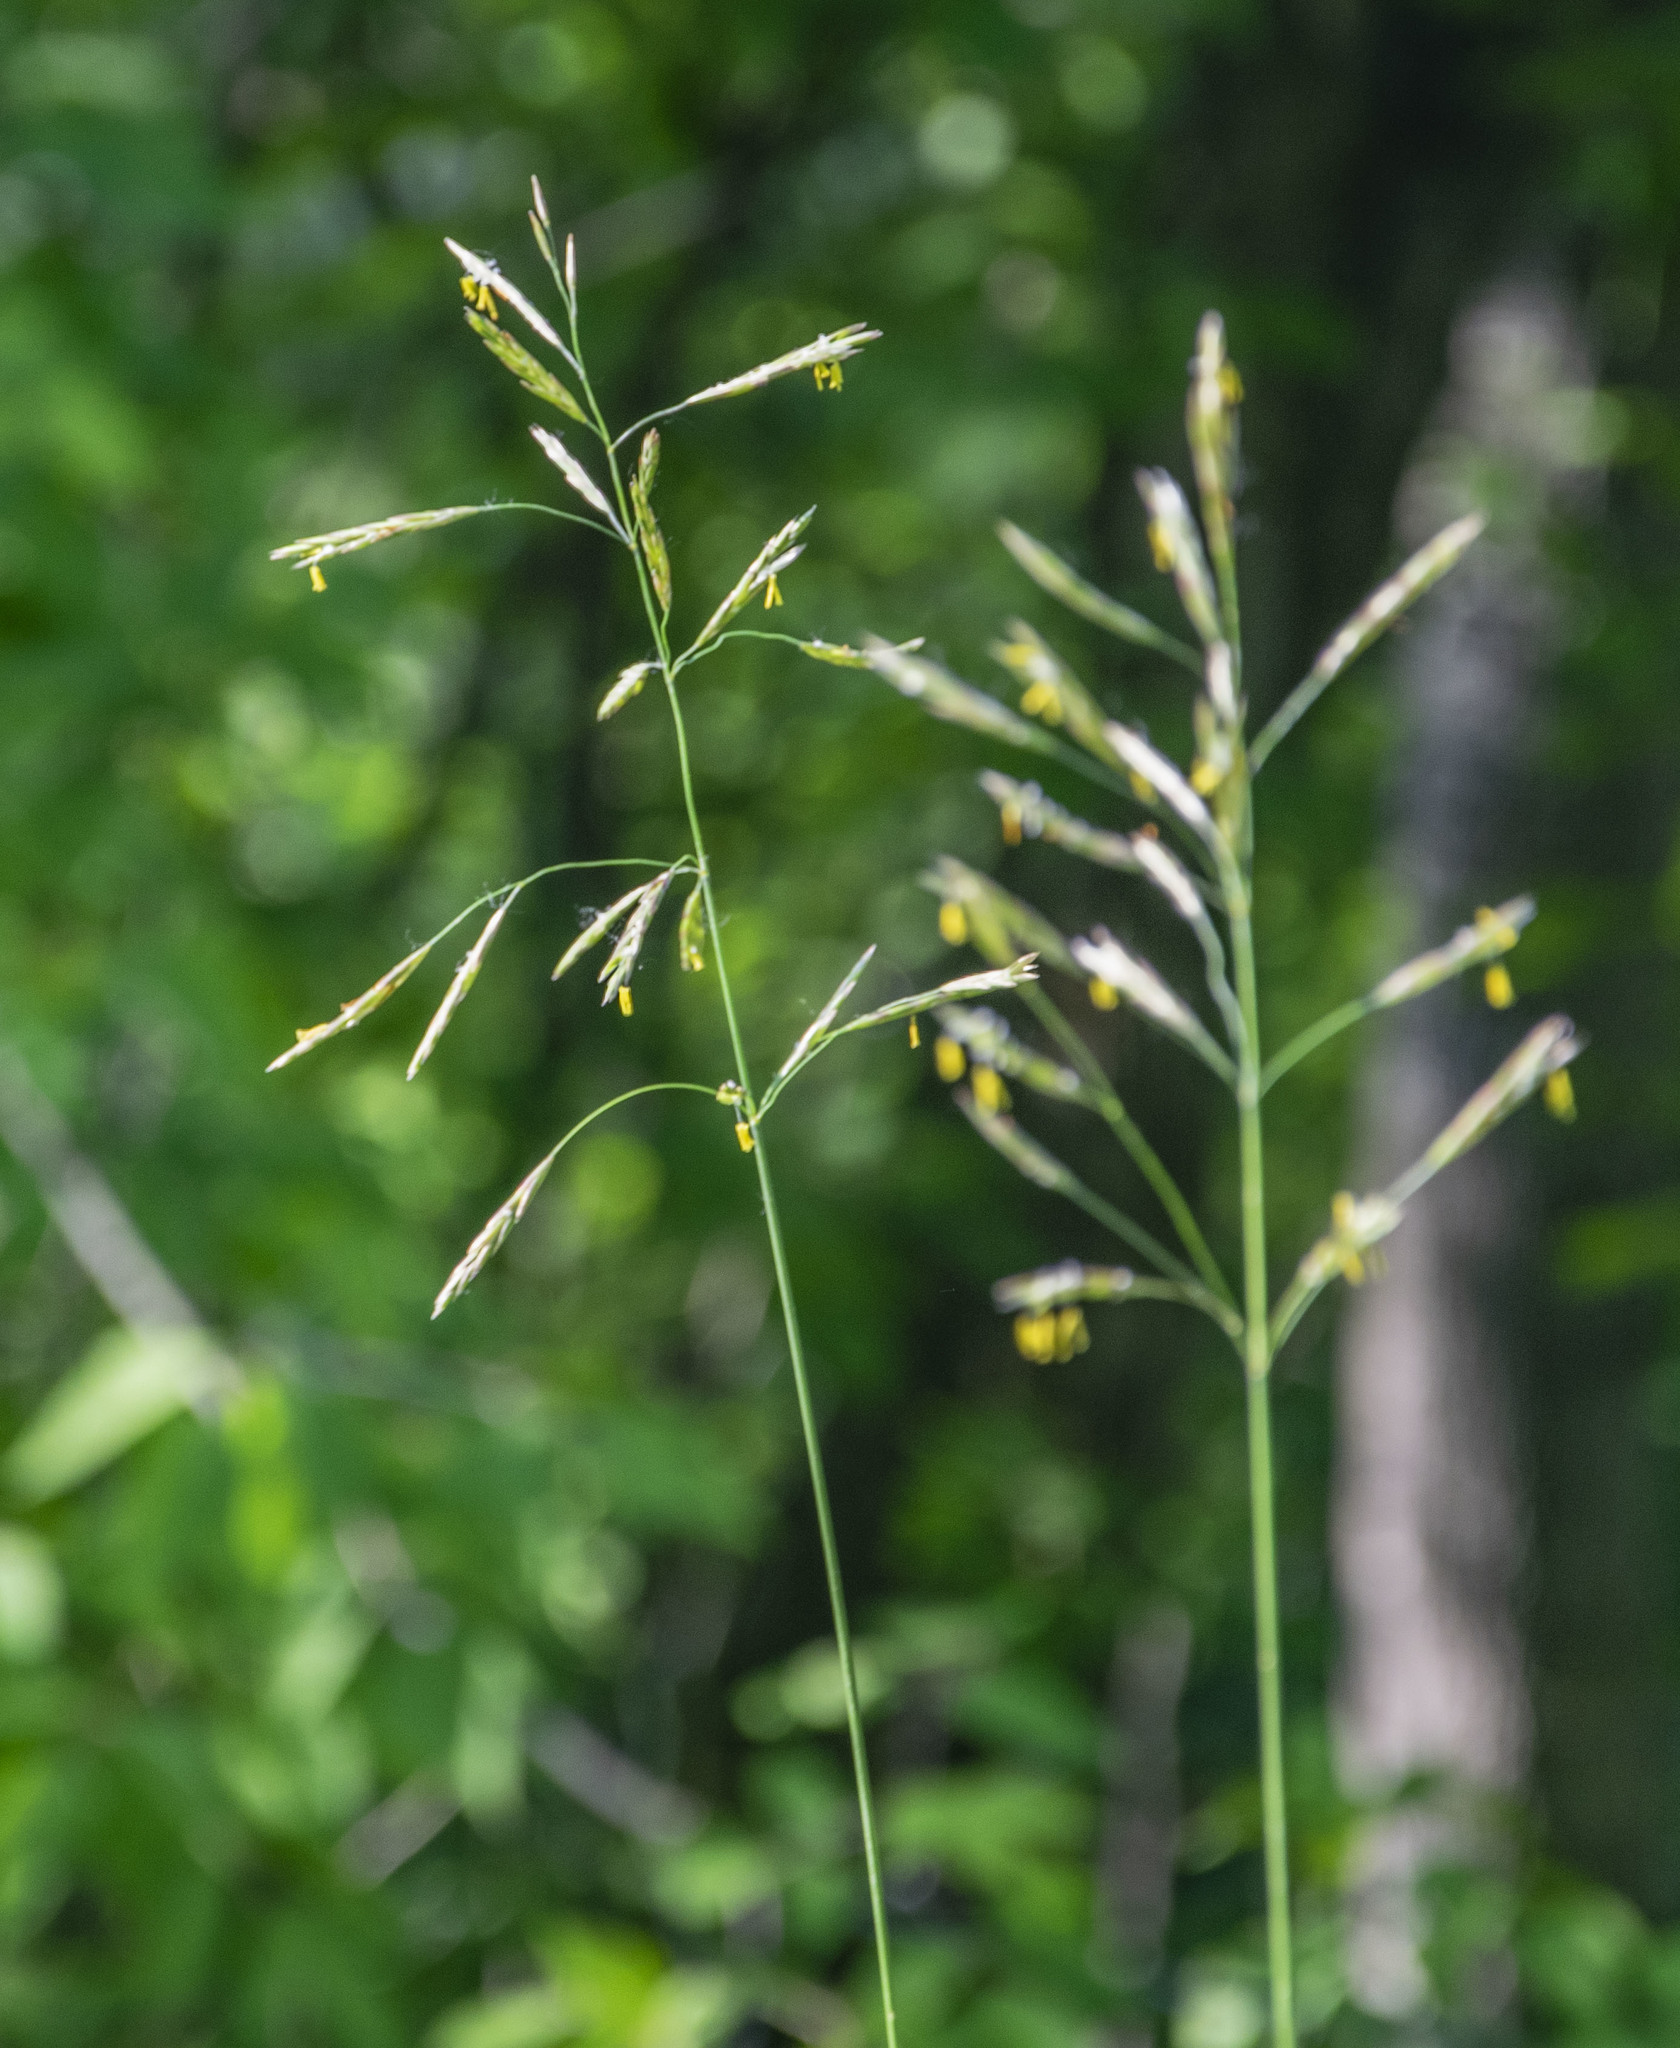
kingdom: Plantae
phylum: Tracheophyta
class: Liliopsida
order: Poales
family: Poaceae
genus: Bromus
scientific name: Bromus inermis
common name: Smooth brome
